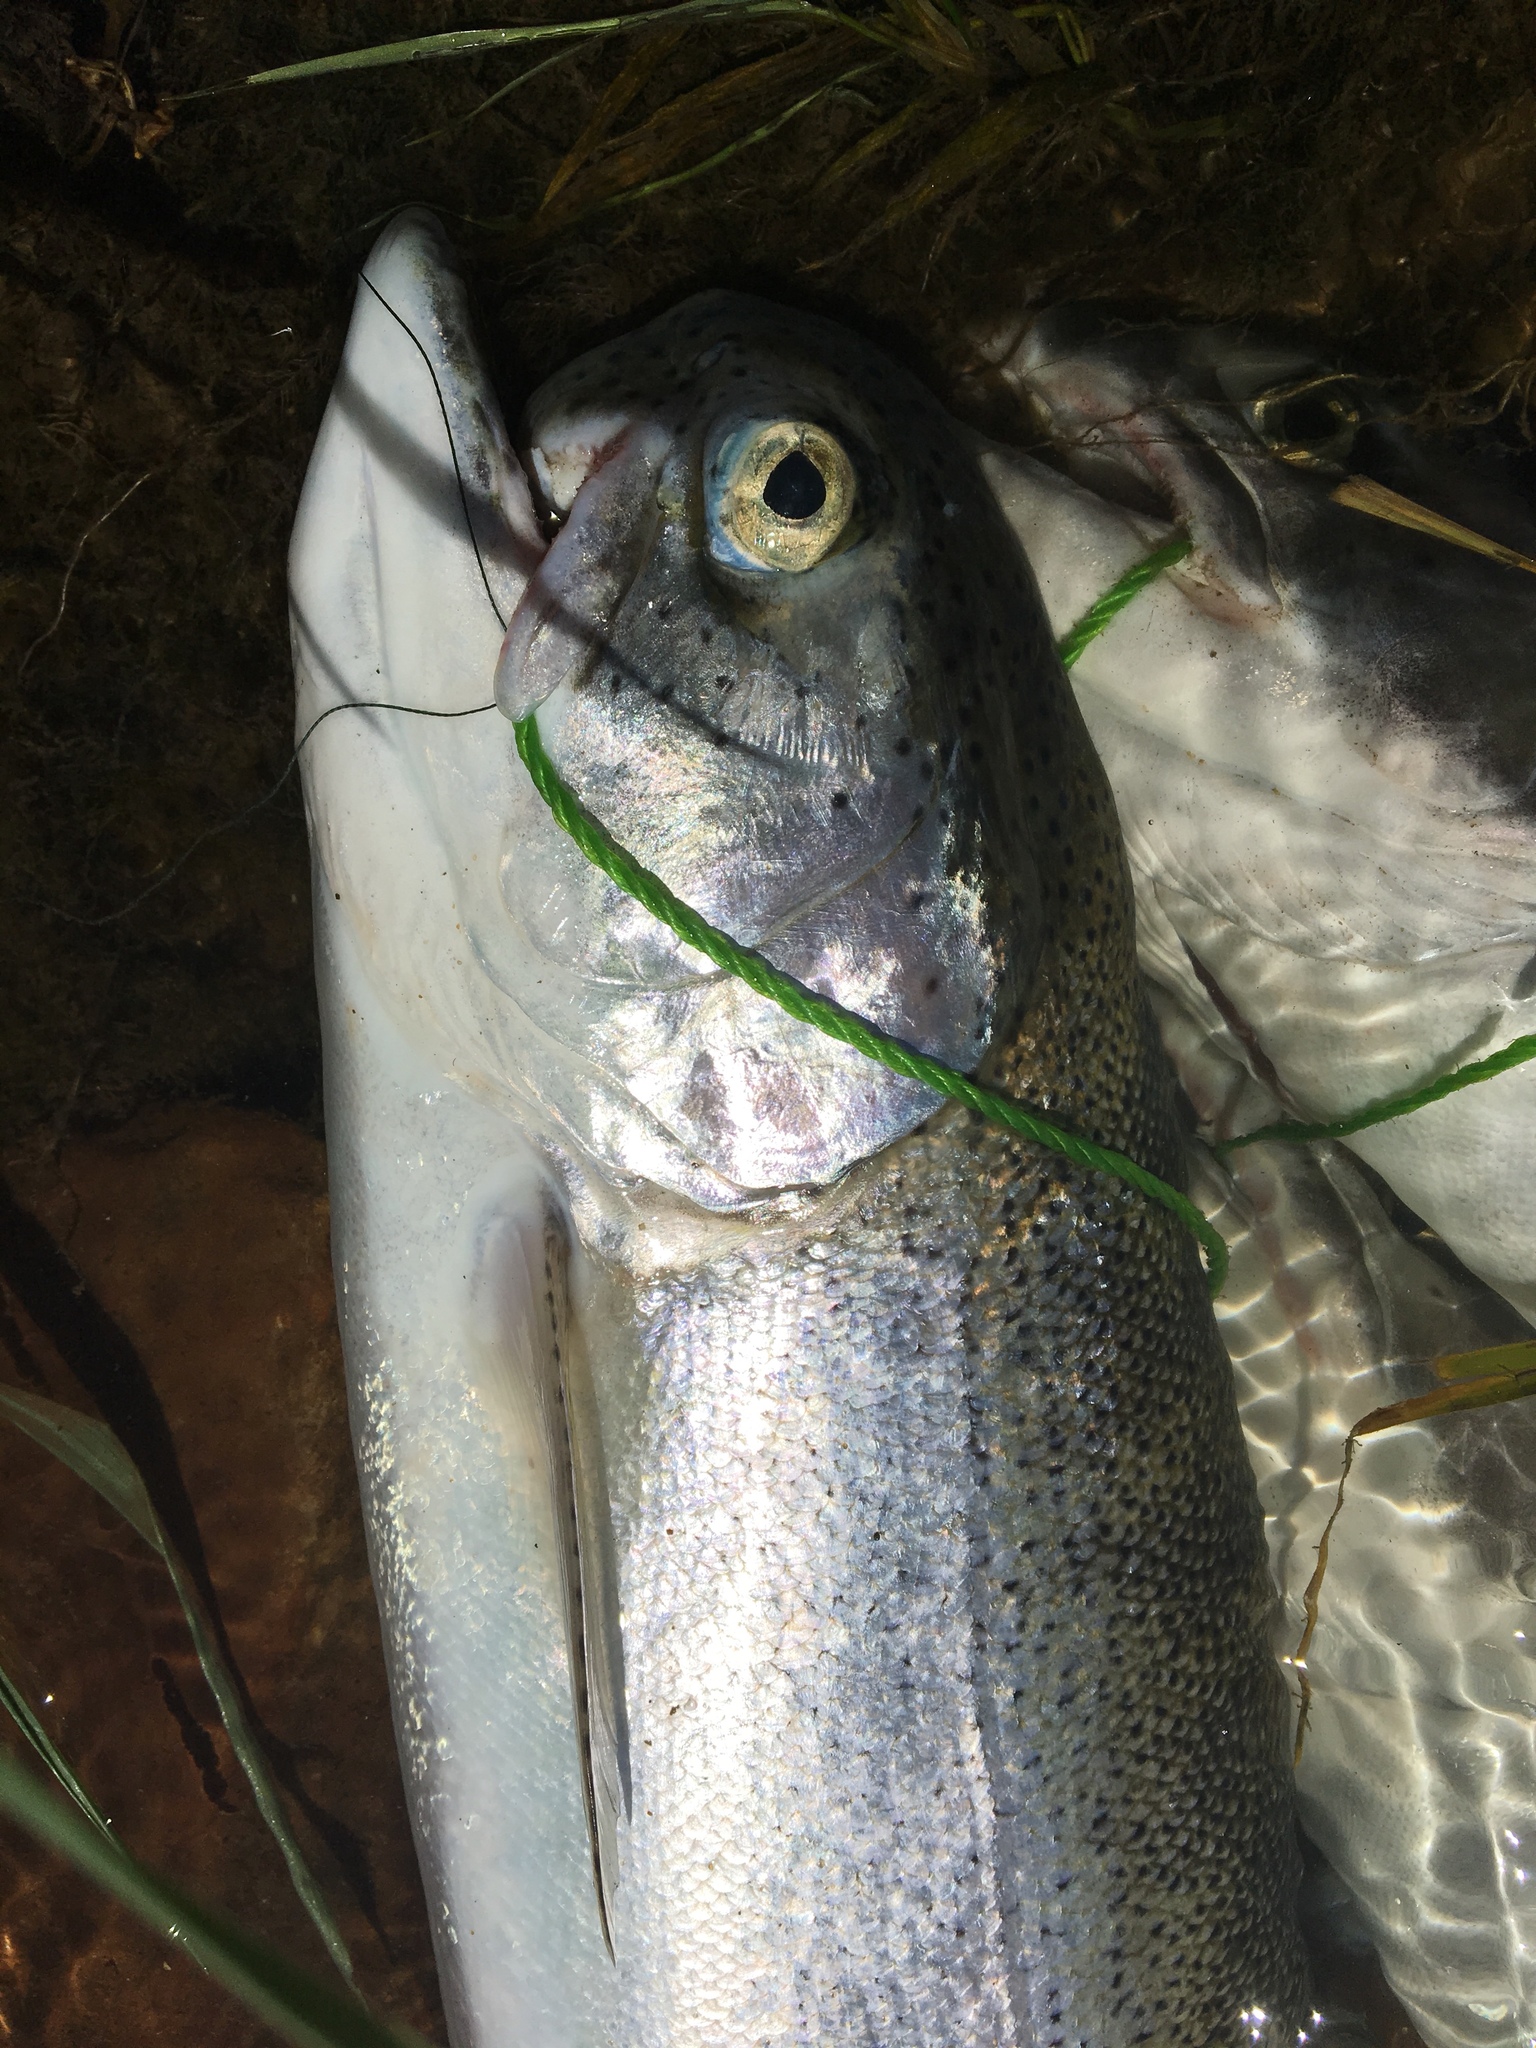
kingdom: Animalia
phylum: Chordata
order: Salmoniformes
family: Salmonidae
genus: Oncorhynchus
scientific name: Oncorhynchus mykiss
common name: Rainbow trout
